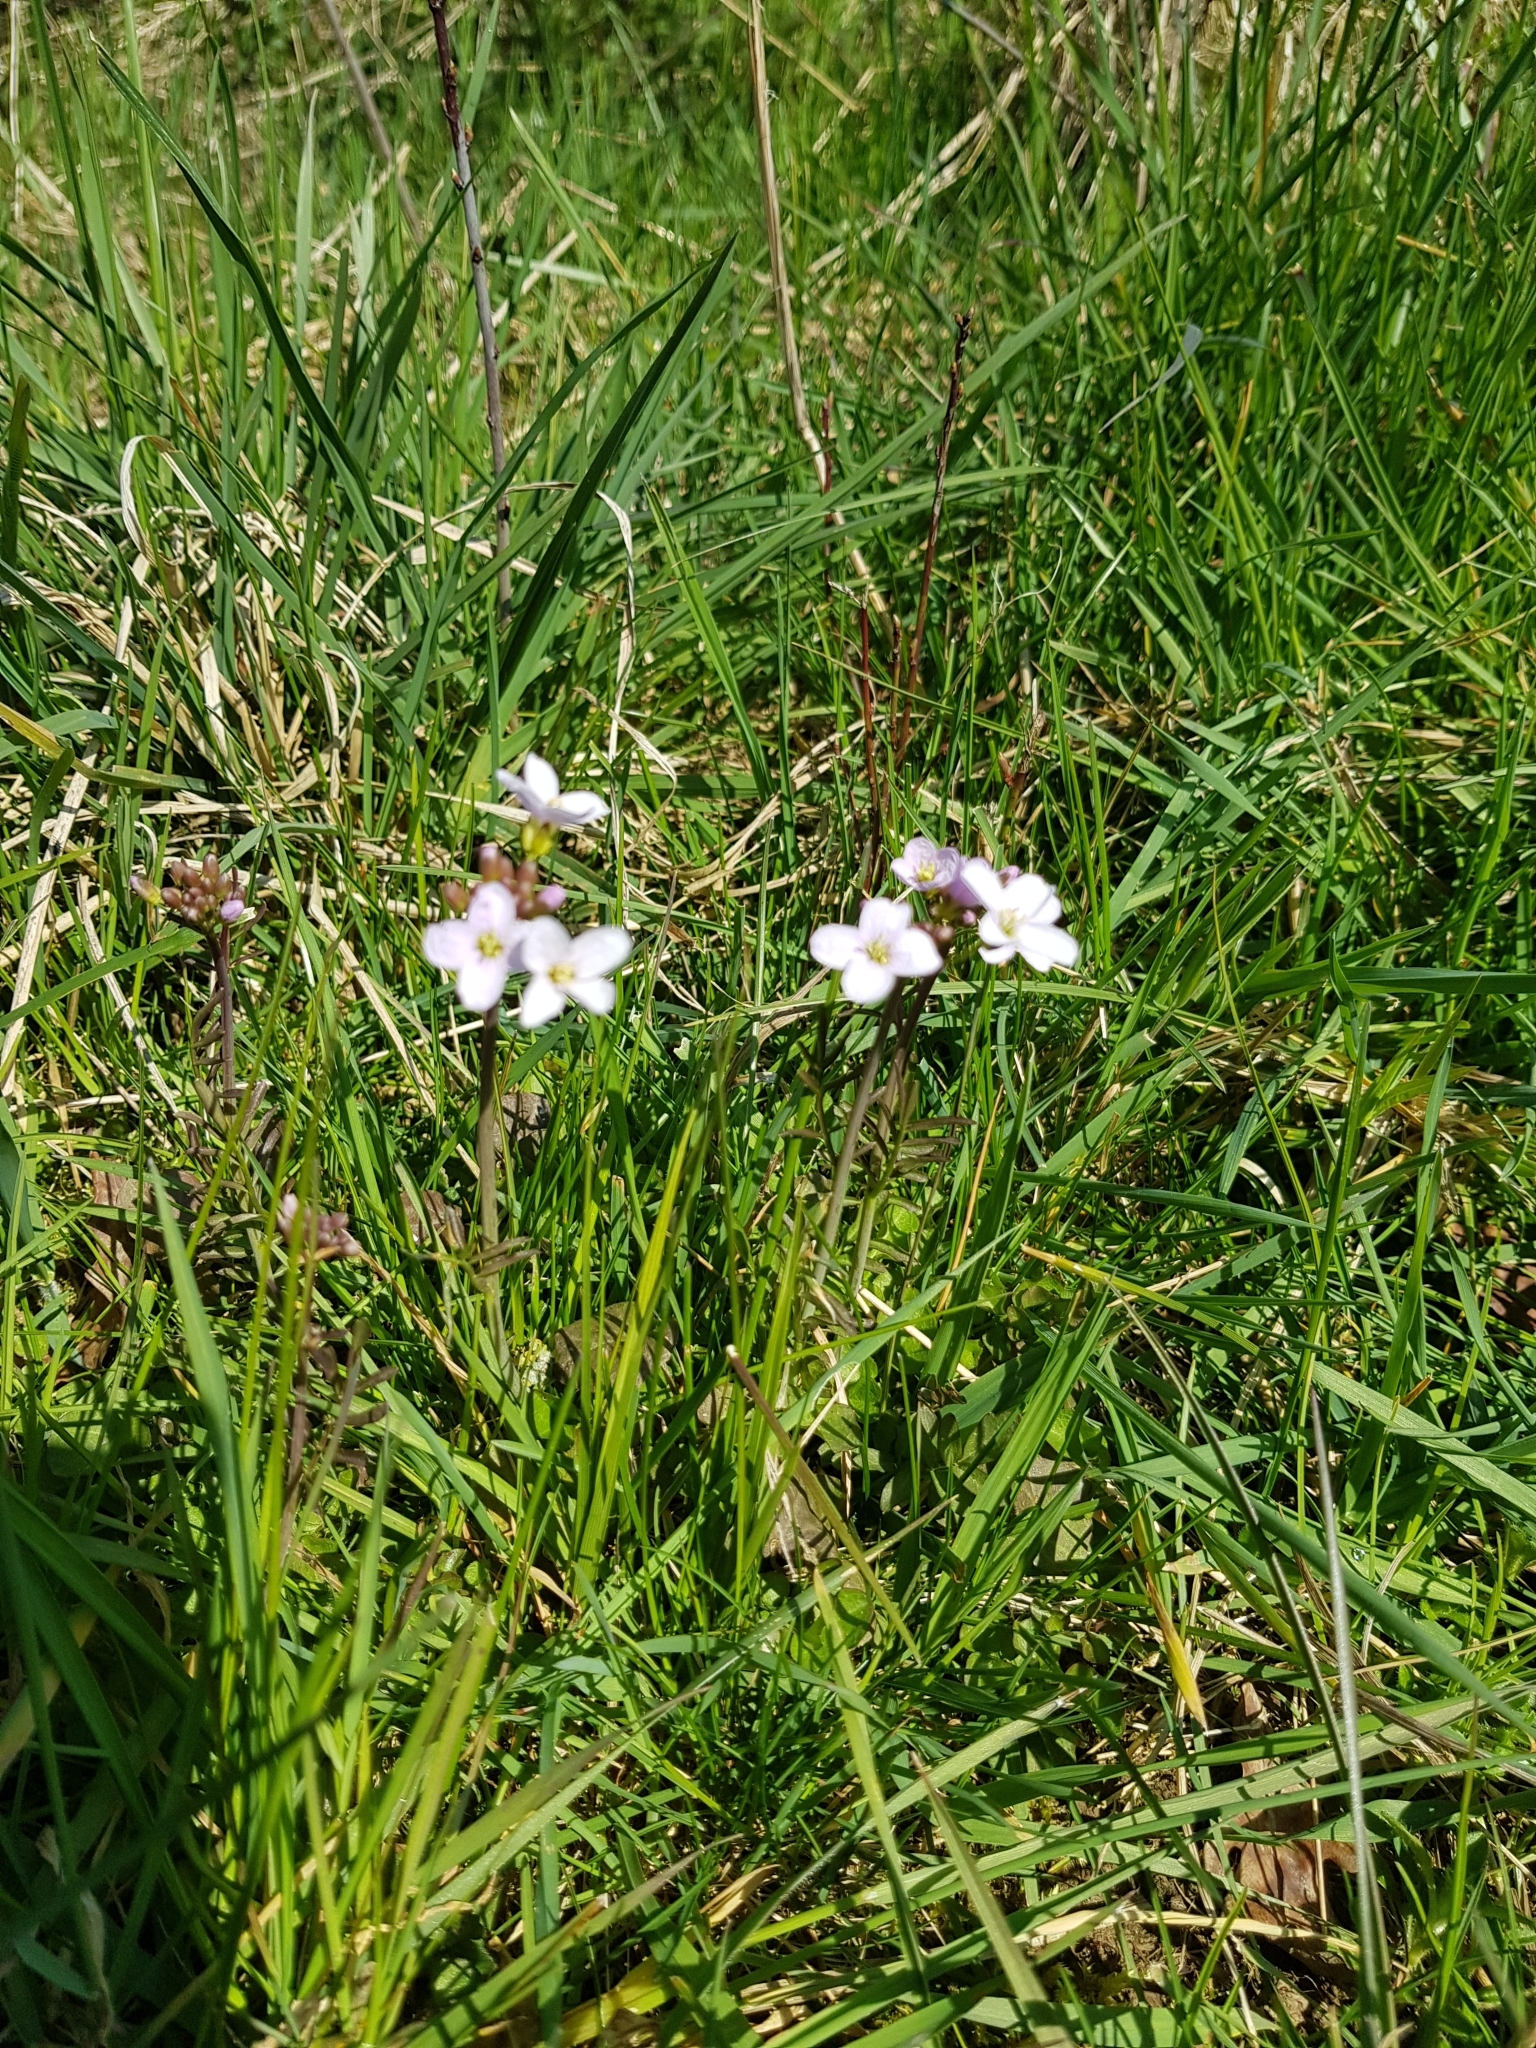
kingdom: Plantae
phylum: Tracheophyta
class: Magnoliopsida
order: Brassicales
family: Brassicaceae
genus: Cardamine
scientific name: Cardamine pratensis
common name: Cuckoo flower
